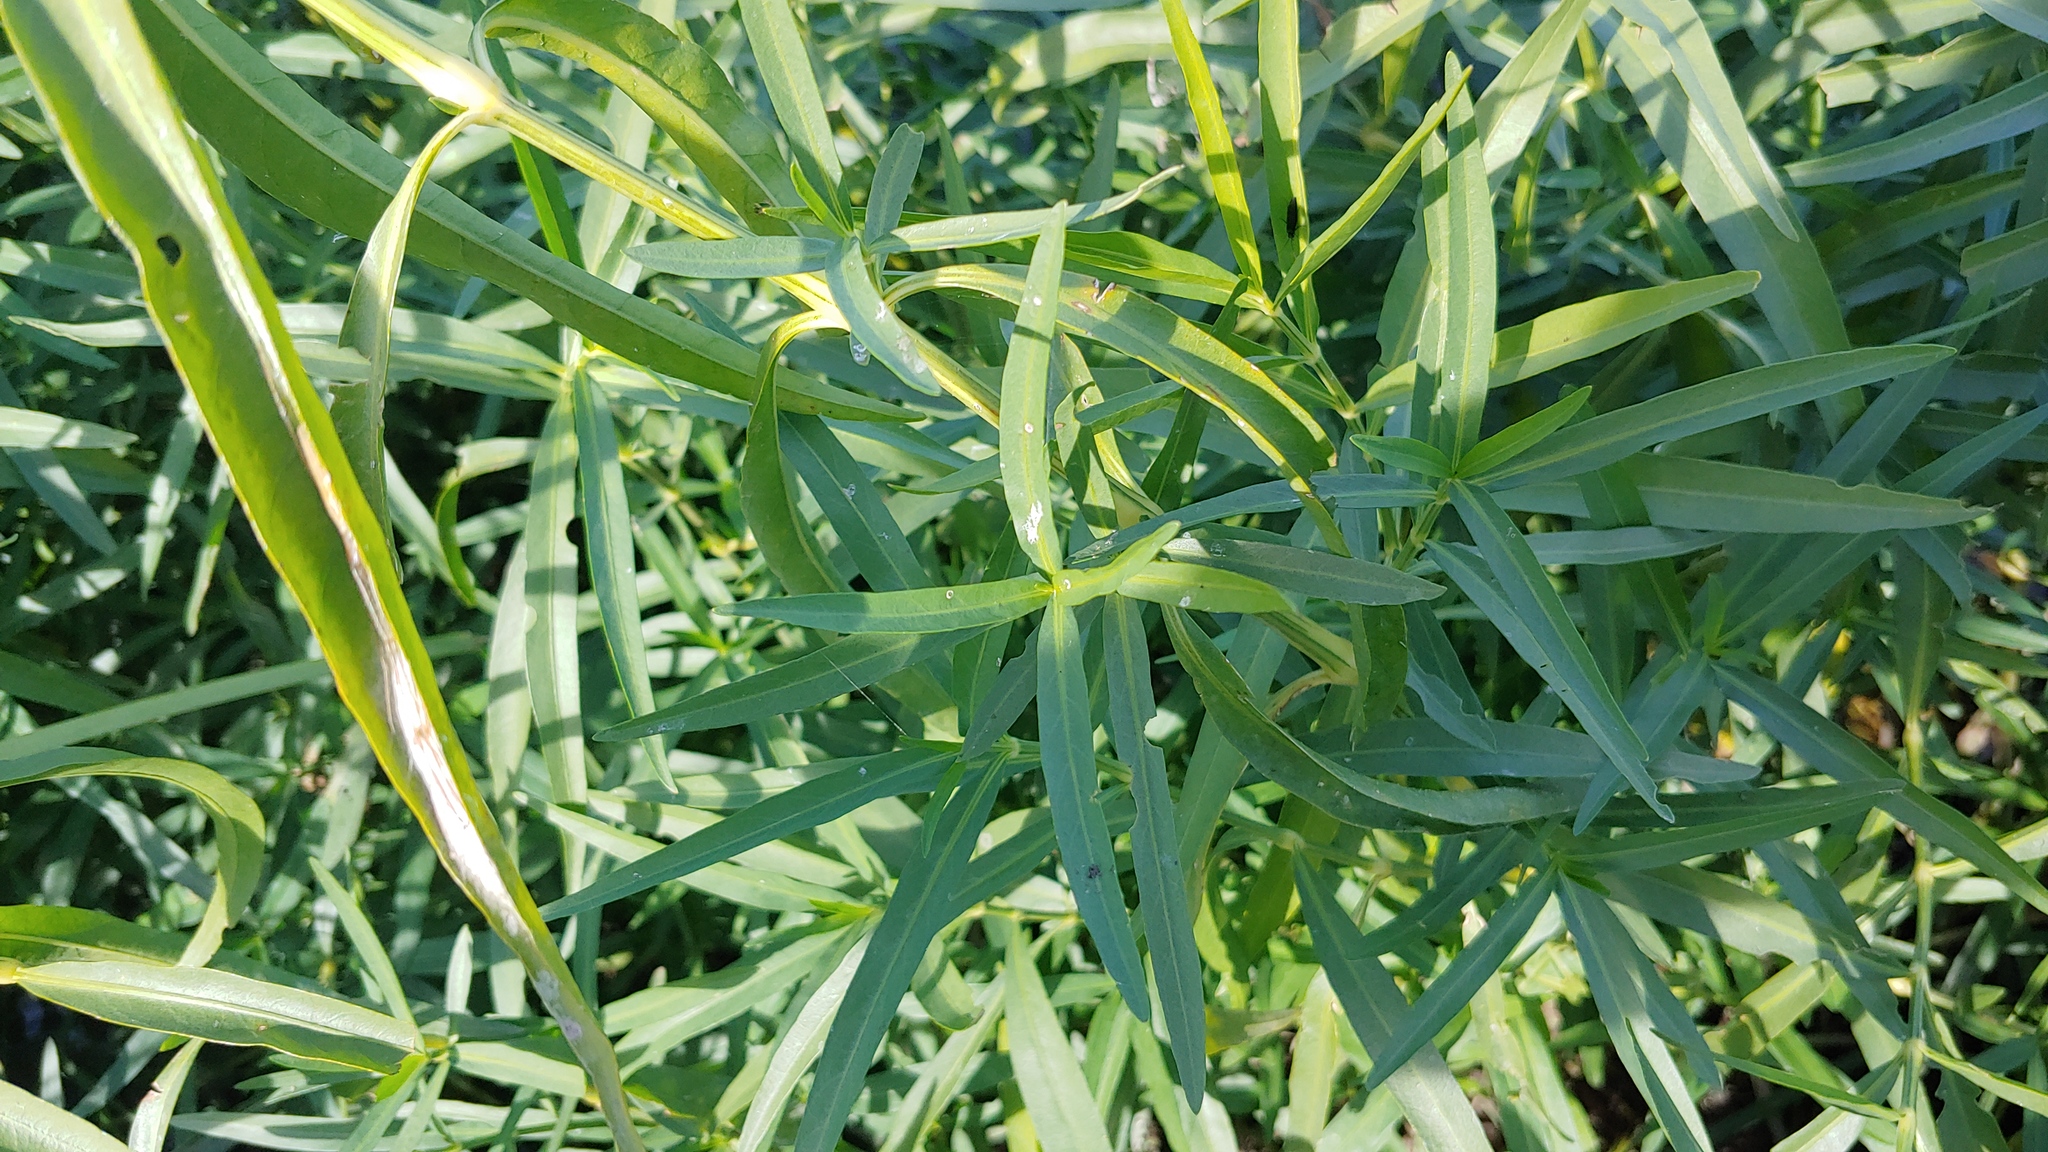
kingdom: Plantae
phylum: Tracheophyta
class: Magnoliopsida
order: Lamiales
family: Acanthaceae
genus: Dianthera
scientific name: Dianthera americana
